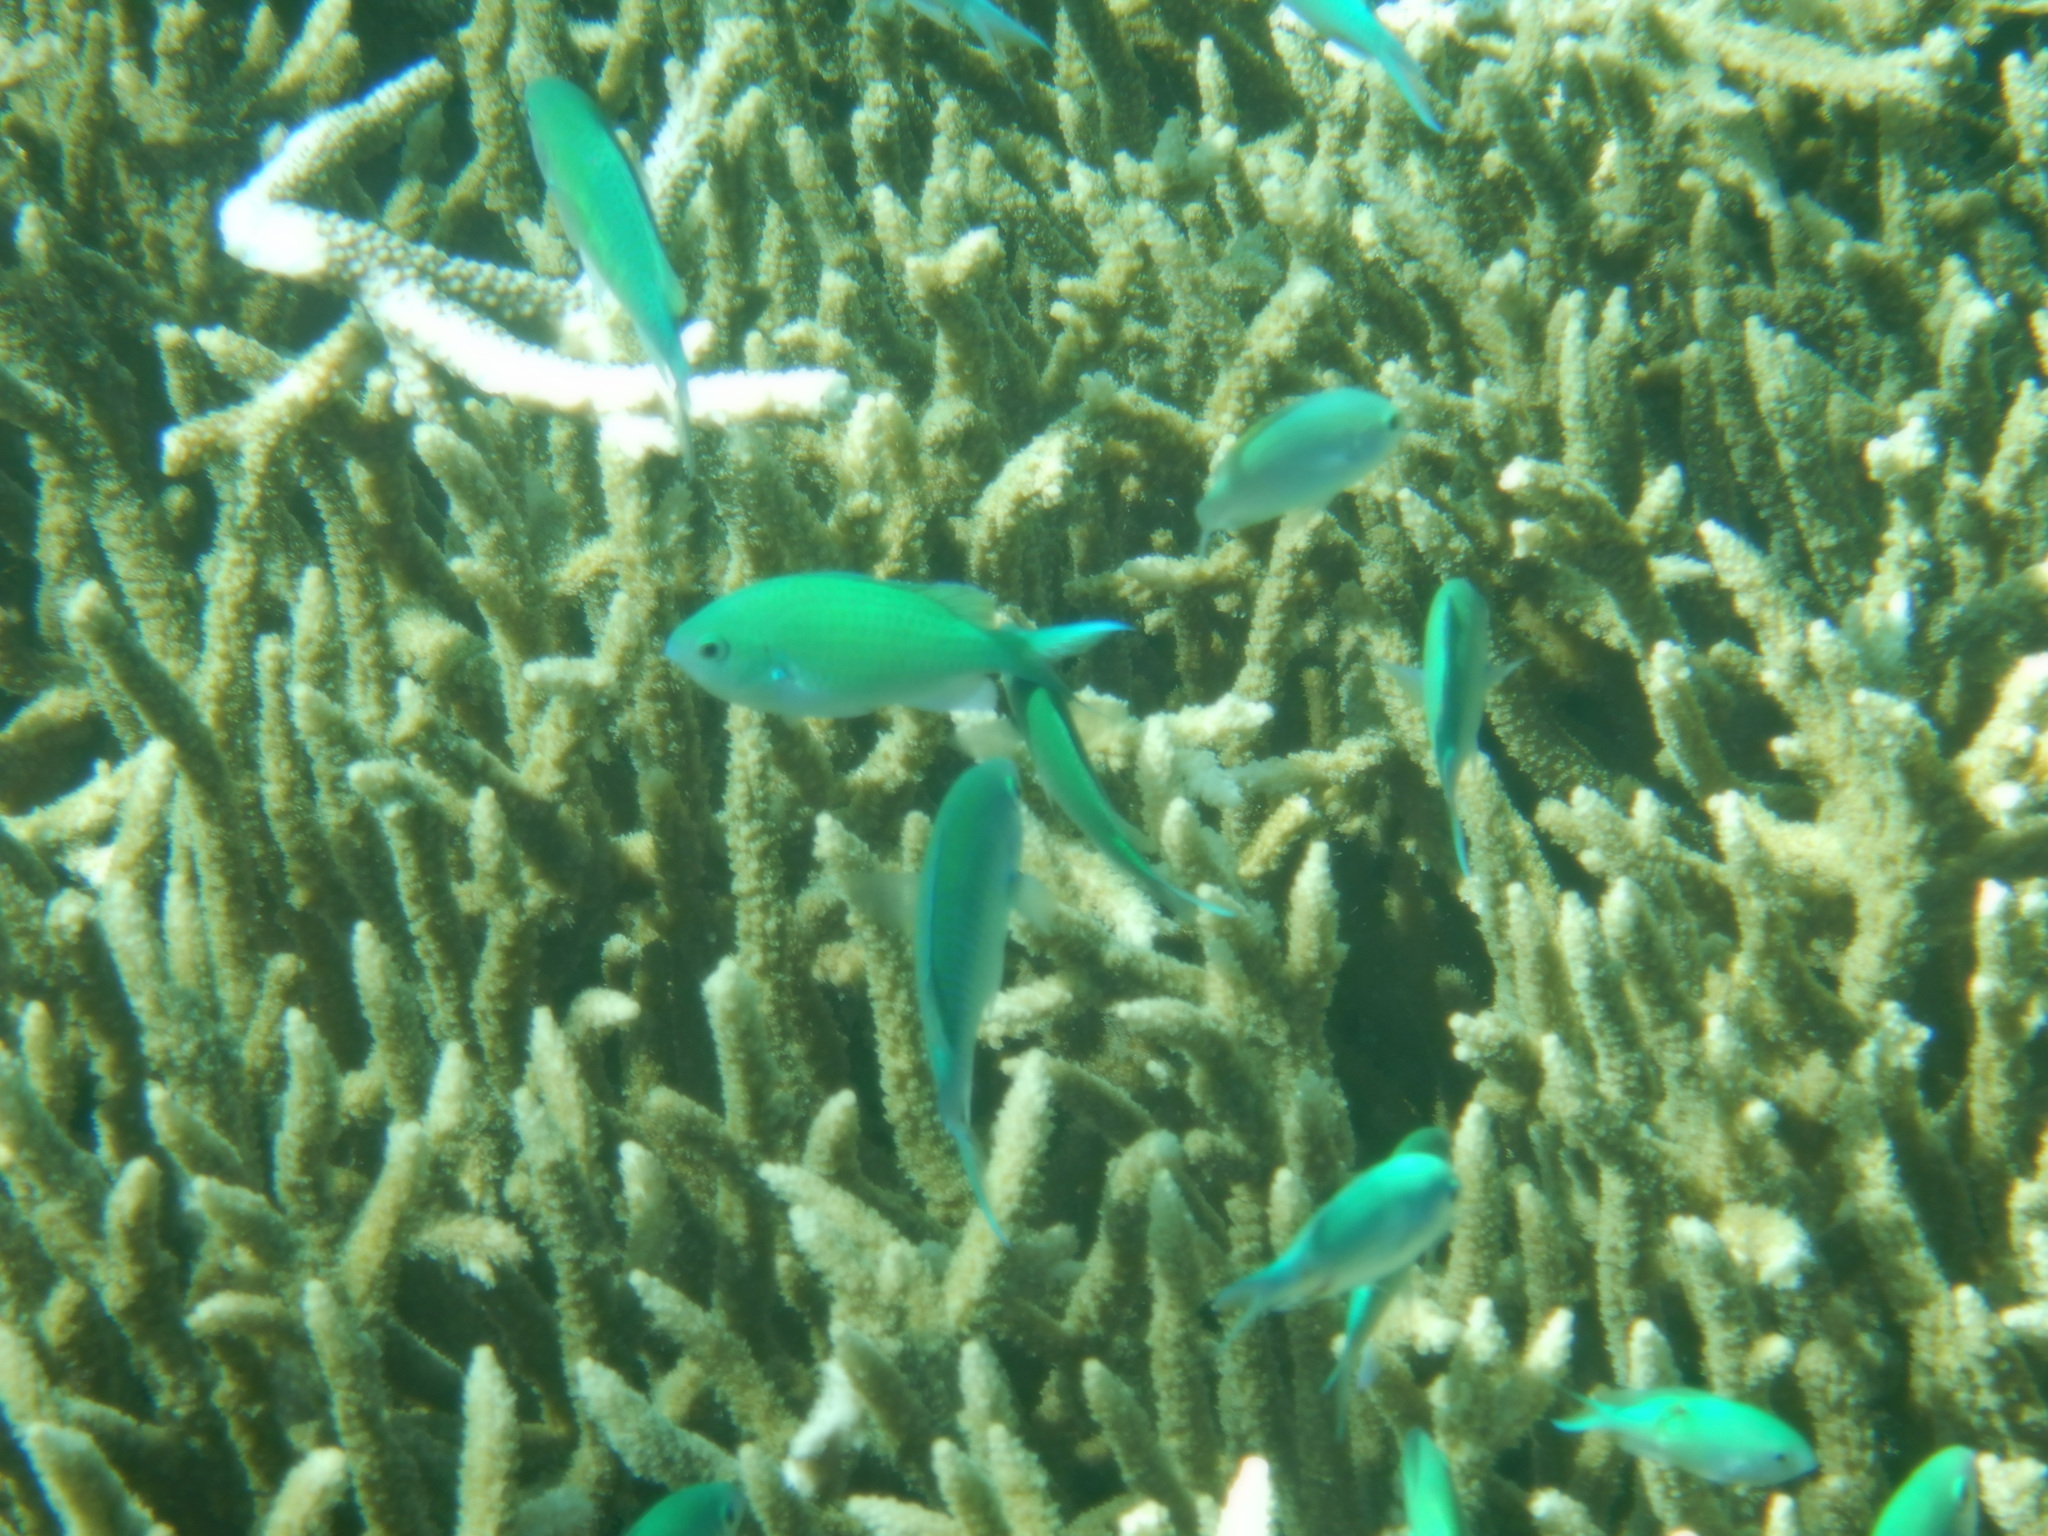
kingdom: Animalia
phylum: Chordata
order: Perciformes
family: Pomacentridae
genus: Chromis
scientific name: Chromis viridis
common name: Blue-green chromis
